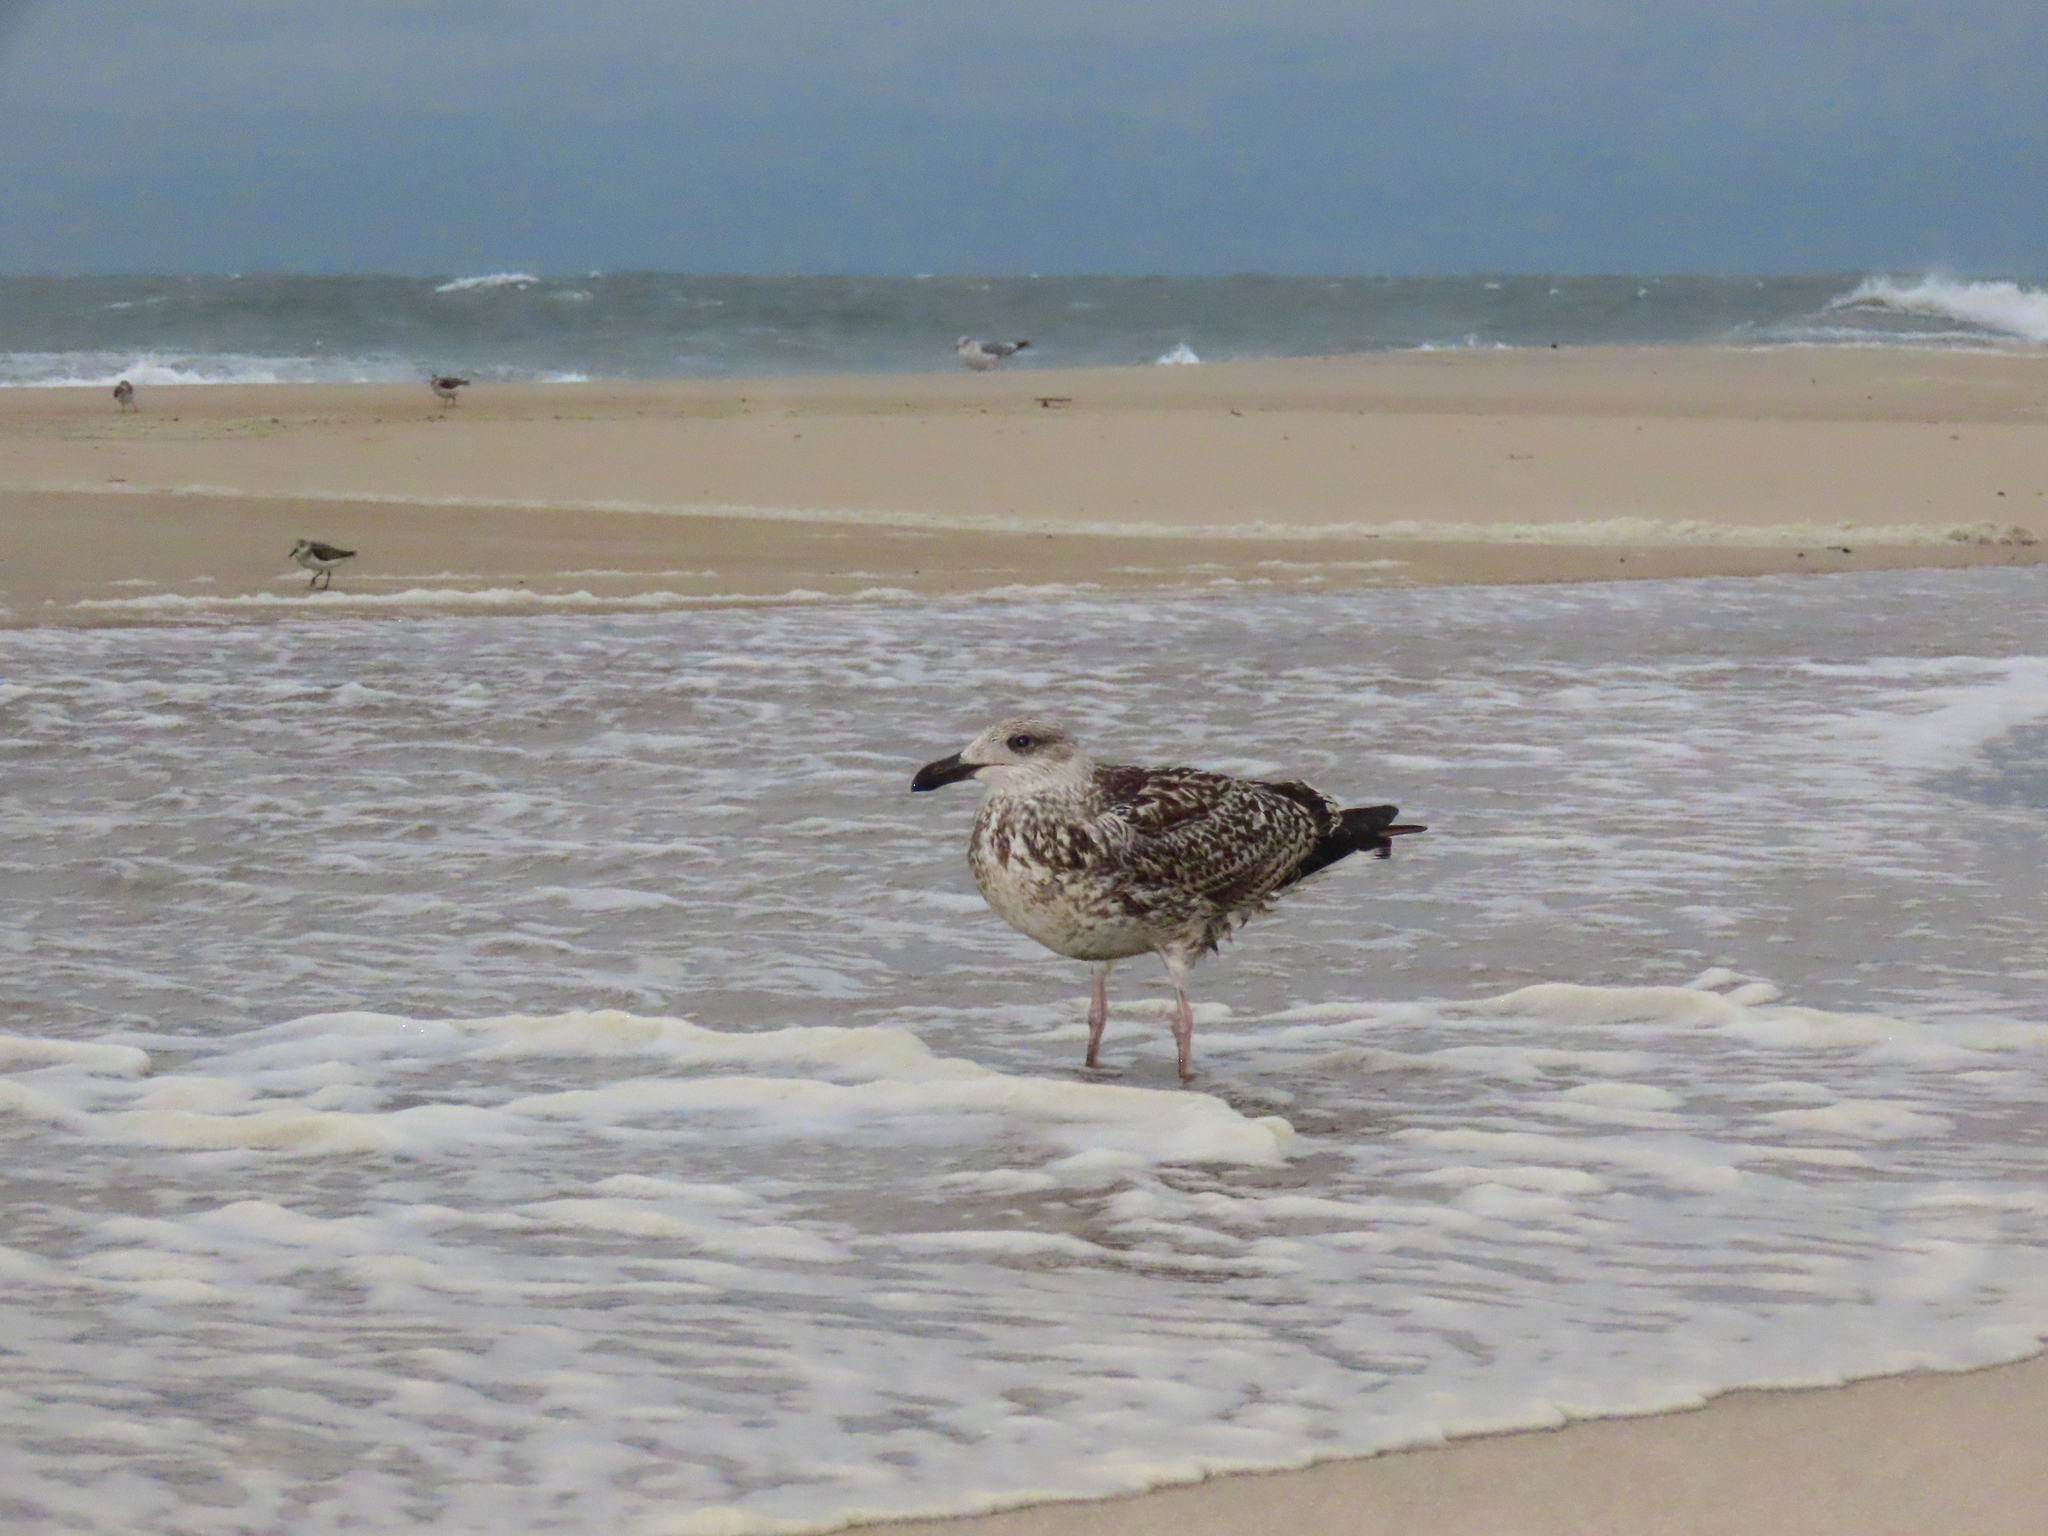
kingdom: Animalia
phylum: Chordata
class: Aves
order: Charadriiformes
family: Laridae
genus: Larus
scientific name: Larus marinus
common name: Great black-backed gull
